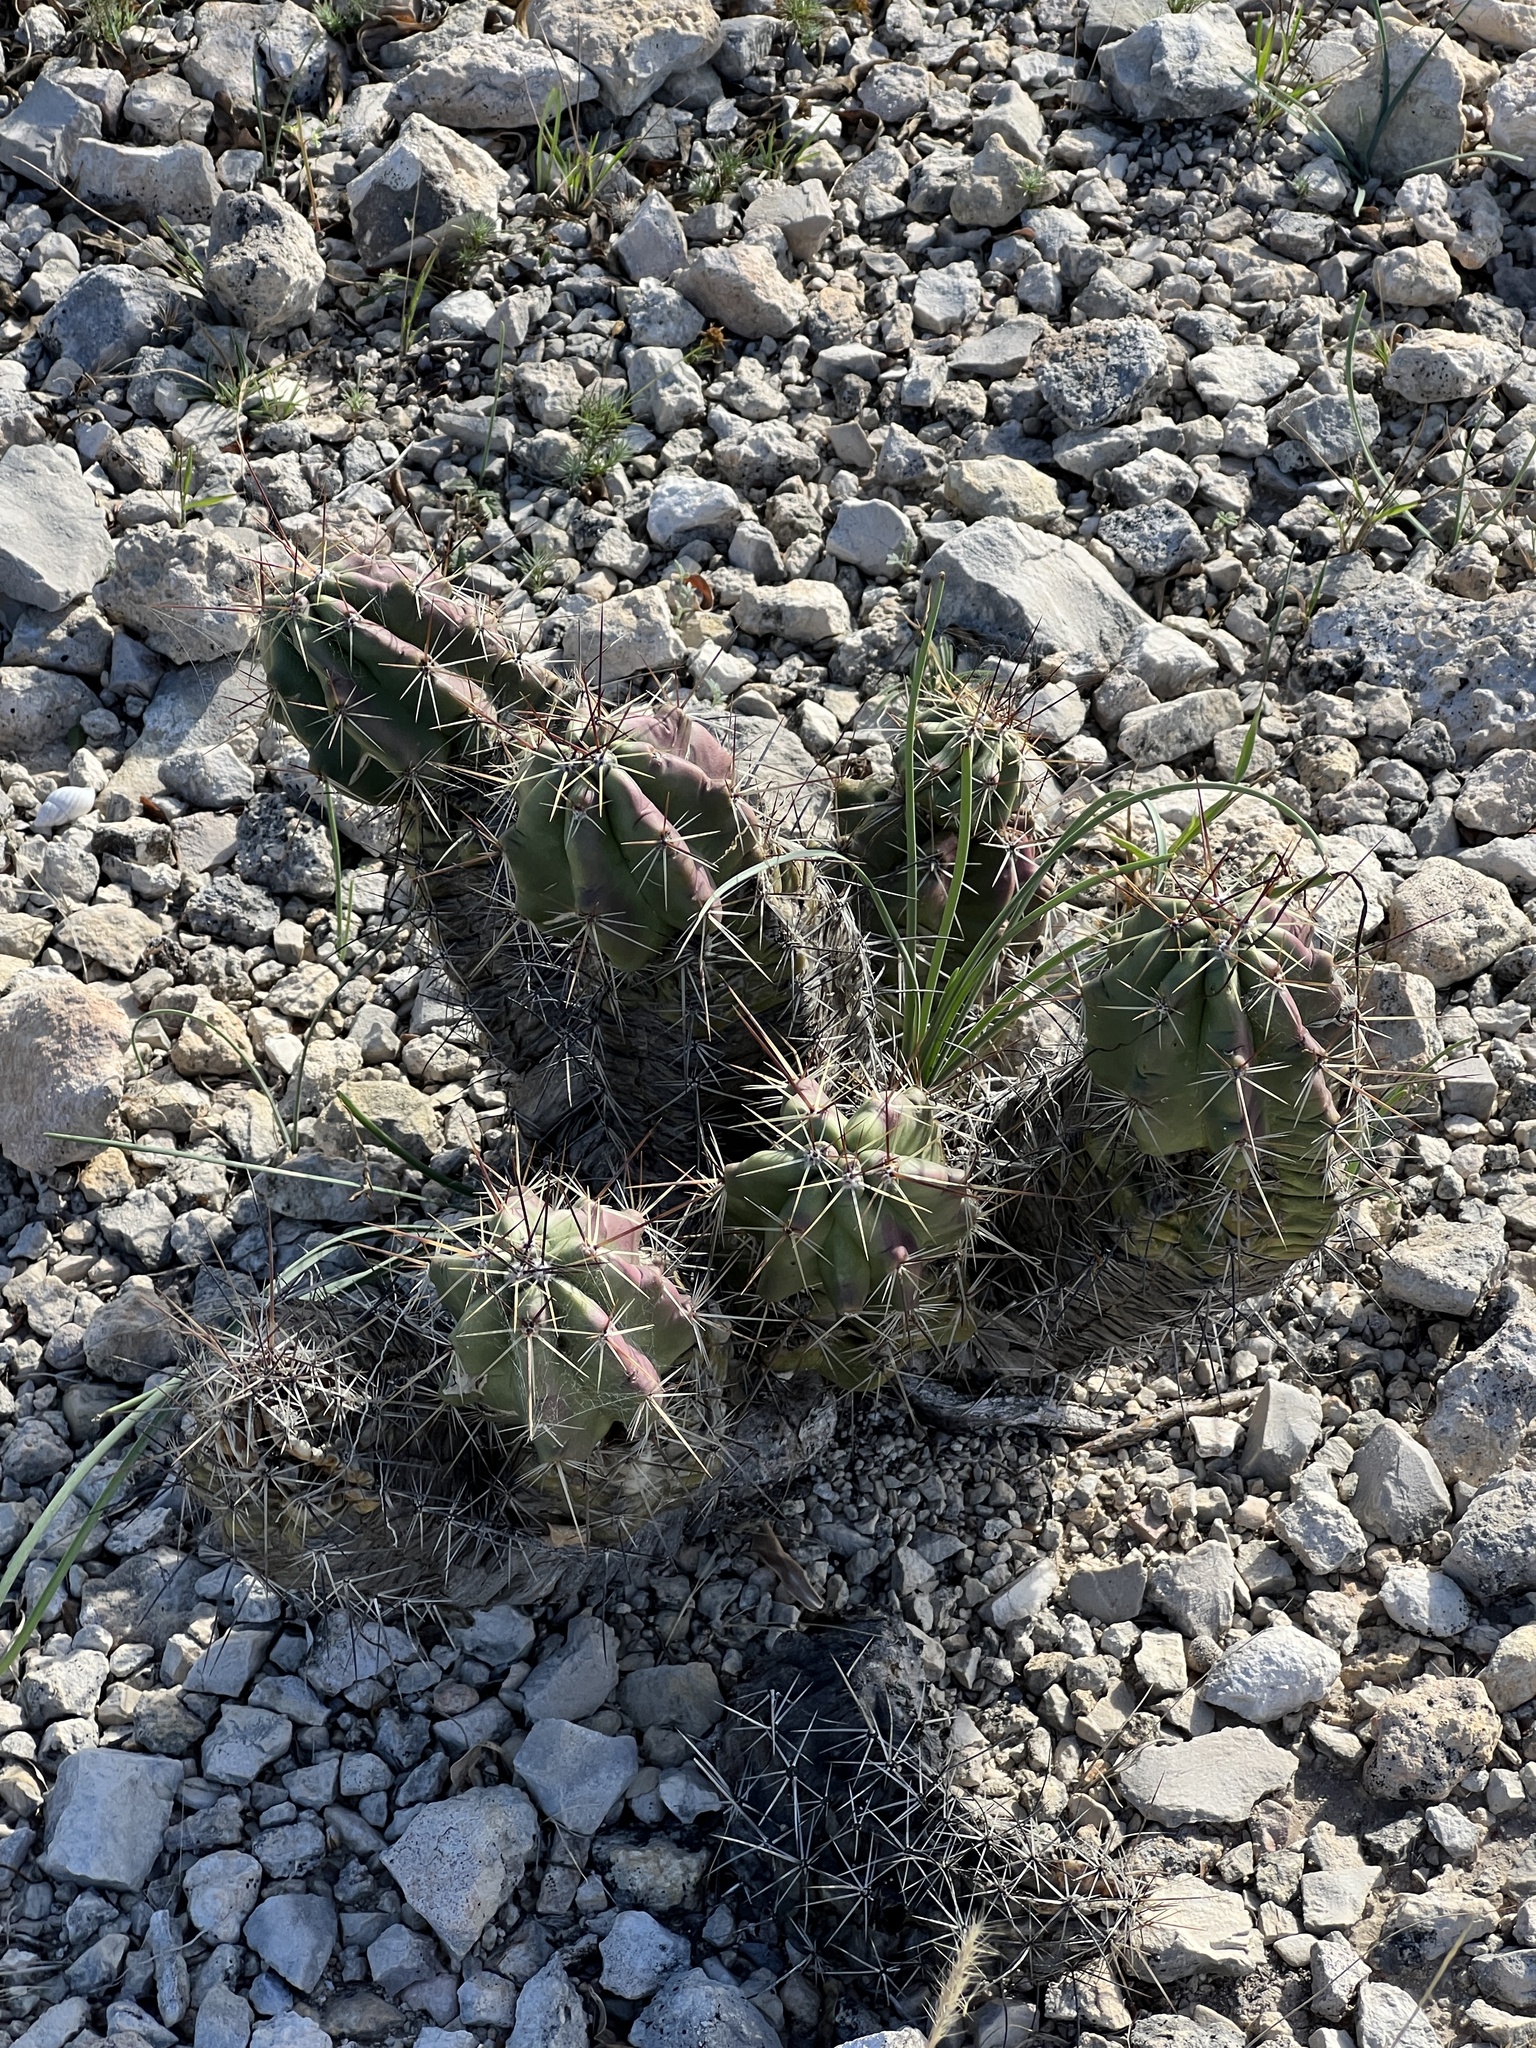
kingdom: Plantae
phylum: Tracheophyta
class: Magnoliopsida
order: Caryophyllales
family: Cactaceae
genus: Echinocereus
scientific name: Echinocereus enneacanthus
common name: Pitaya
